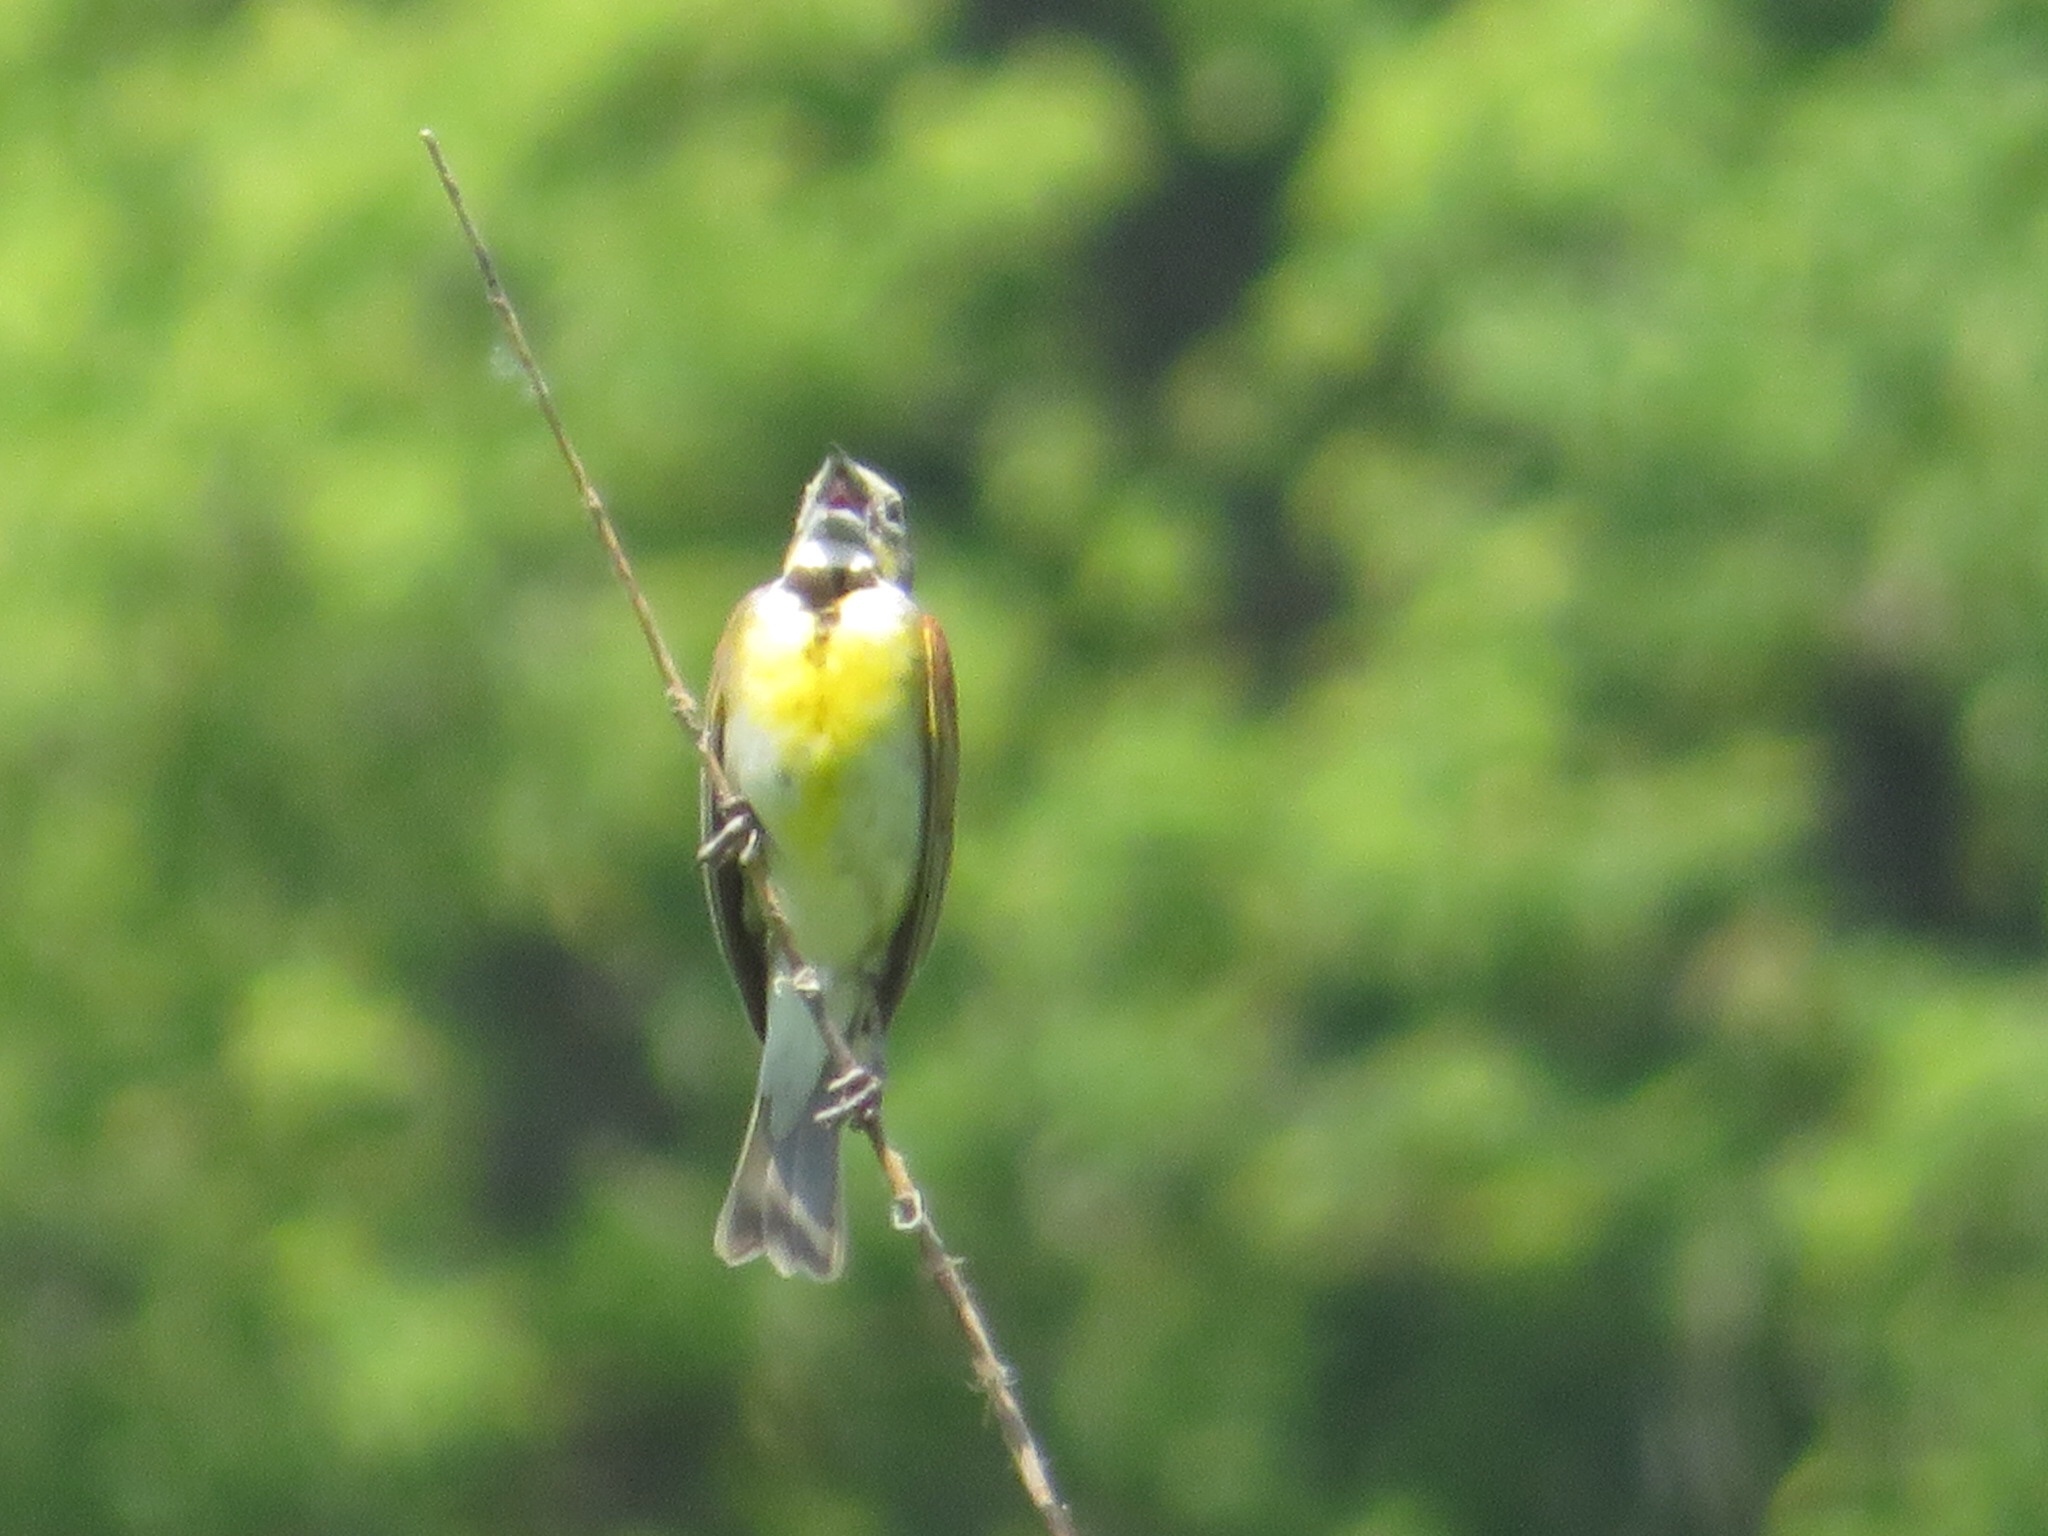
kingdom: Animalia
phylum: Chordata
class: Aves
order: Passeriformes
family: Cardinalidae
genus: Spiza
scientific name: Spiza americana
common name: Dickcissel
